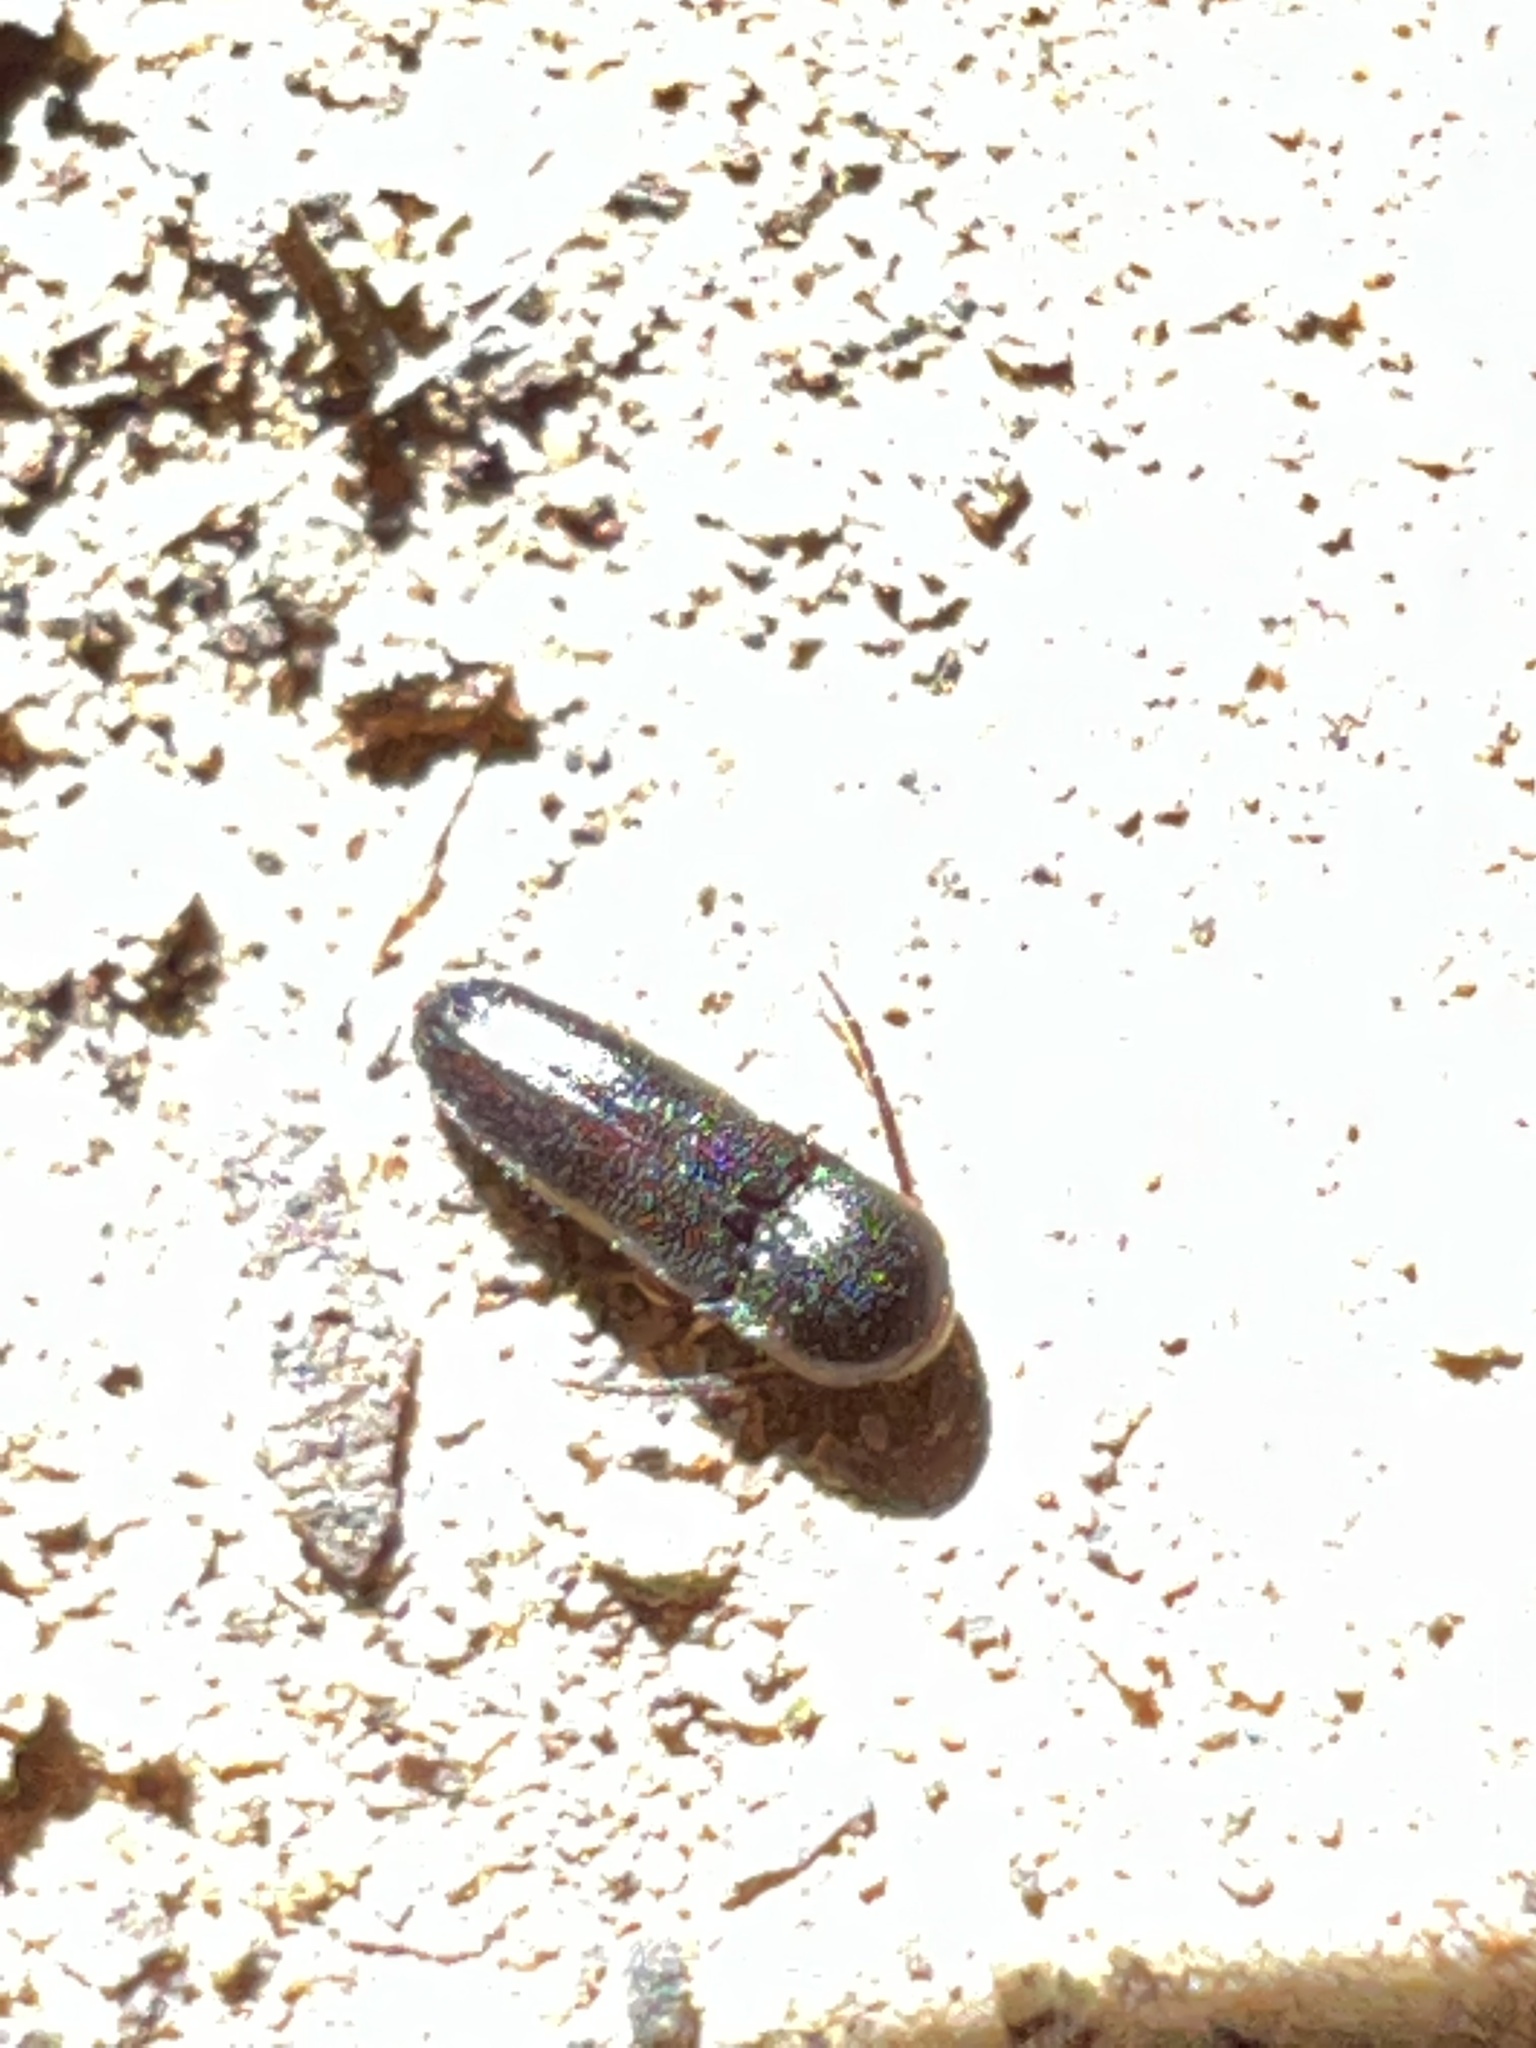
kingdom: Animalia
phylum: Arthropoda
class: Insecta
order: Coleoptera
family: Eucnemidae
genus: Microrhagus
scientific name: Microrhagus breviangularis
